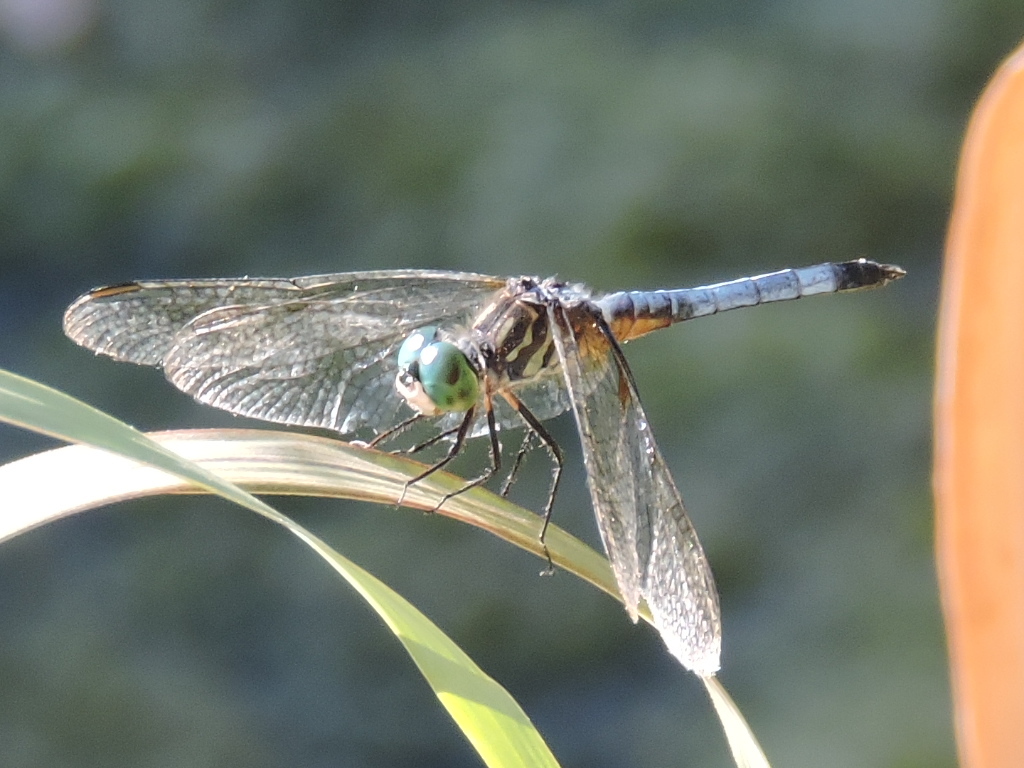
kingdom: Animalia
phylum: Arthropoda
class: Insecta
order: Odonata
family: Libellulidae
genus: Pachydiplax
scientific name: Pachydiplax longipennis
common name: Blue dasher
